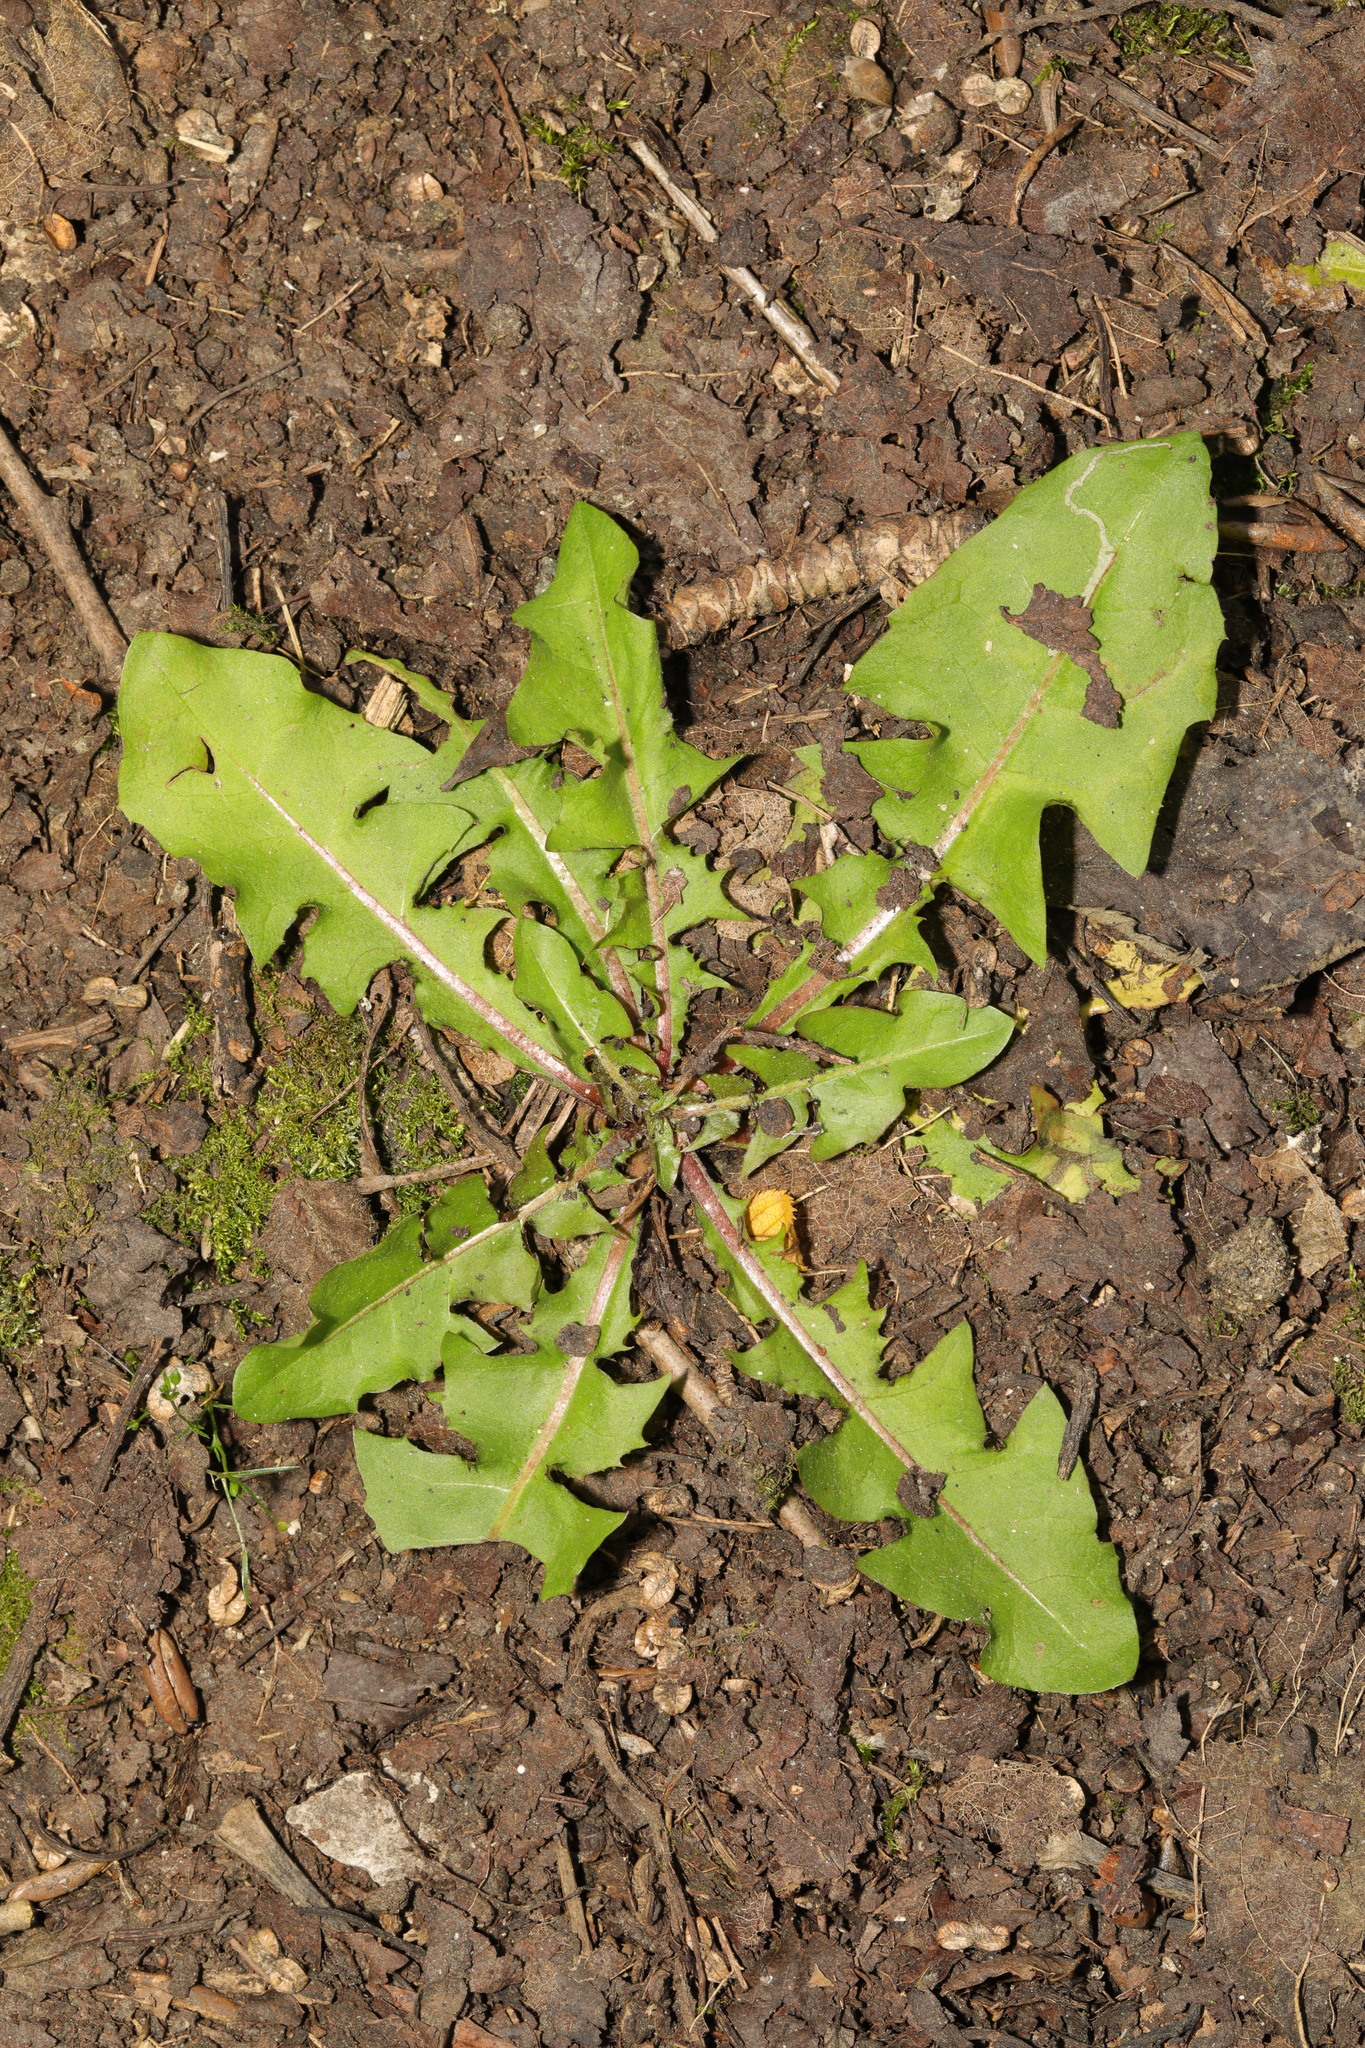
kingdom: Plantae
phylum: Tracheophyta
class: Magnoliopsida
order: Asterales
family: Asteraceae
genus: Taraxacum
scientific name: Taraxacum officinale
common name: Common dandelion
